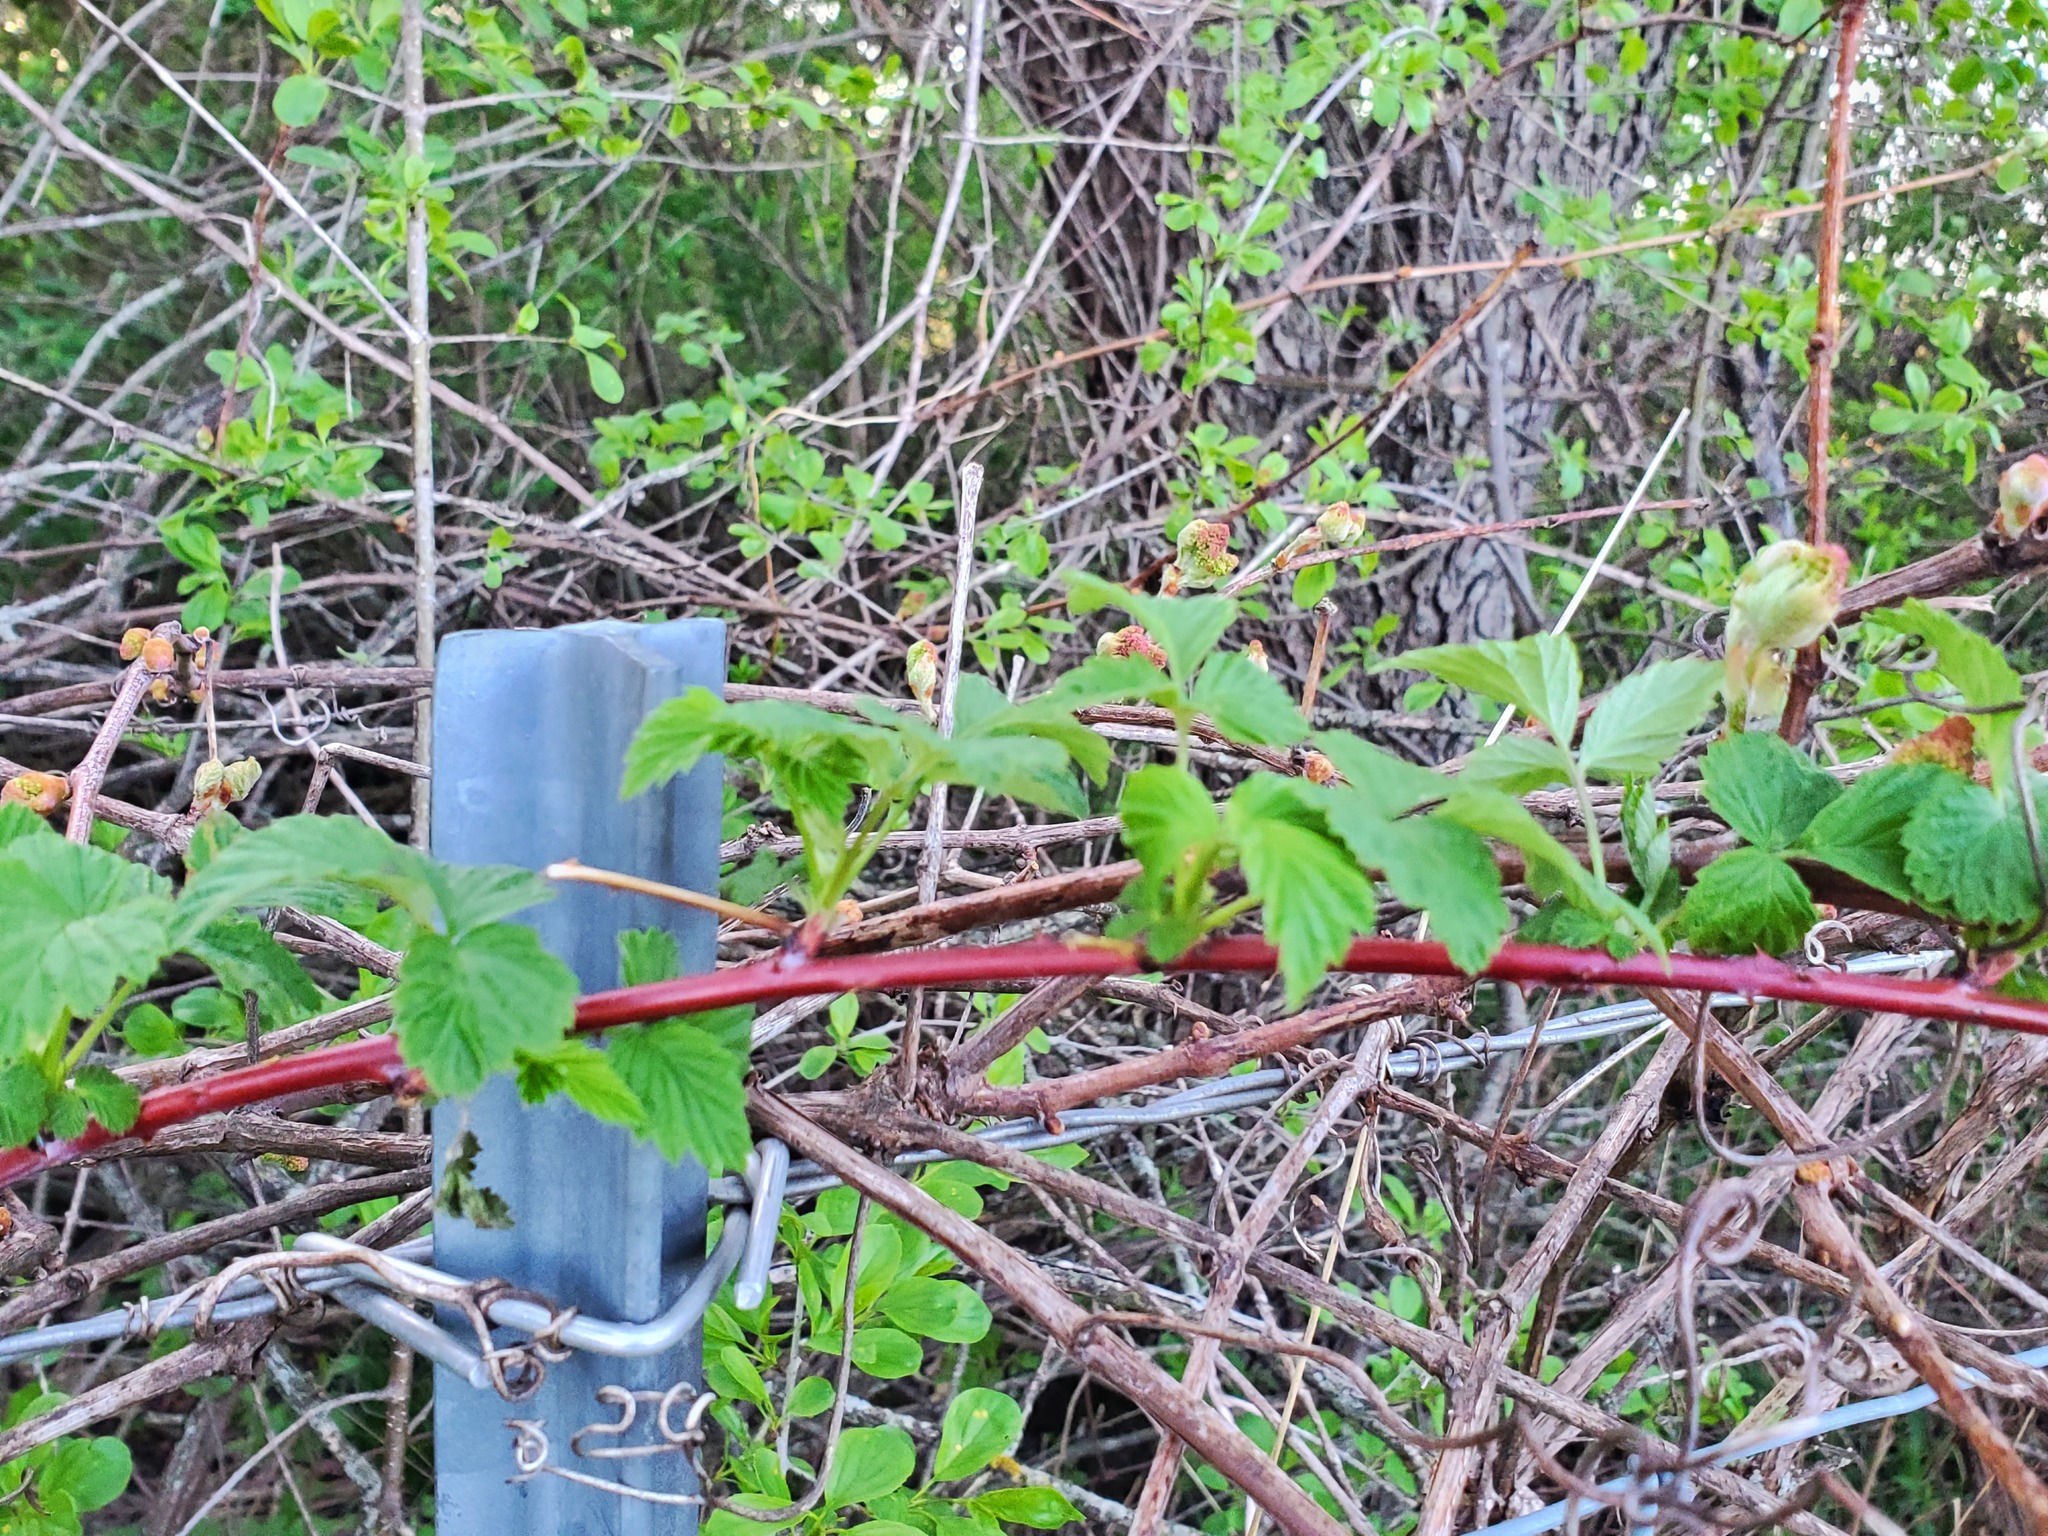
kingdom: Plantae
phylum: Tracheophyta
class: Magnoliopsida
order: Rosales
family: Rosaceae
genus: Rubus
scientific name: Rubus occidentalis
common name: Black raspberry
